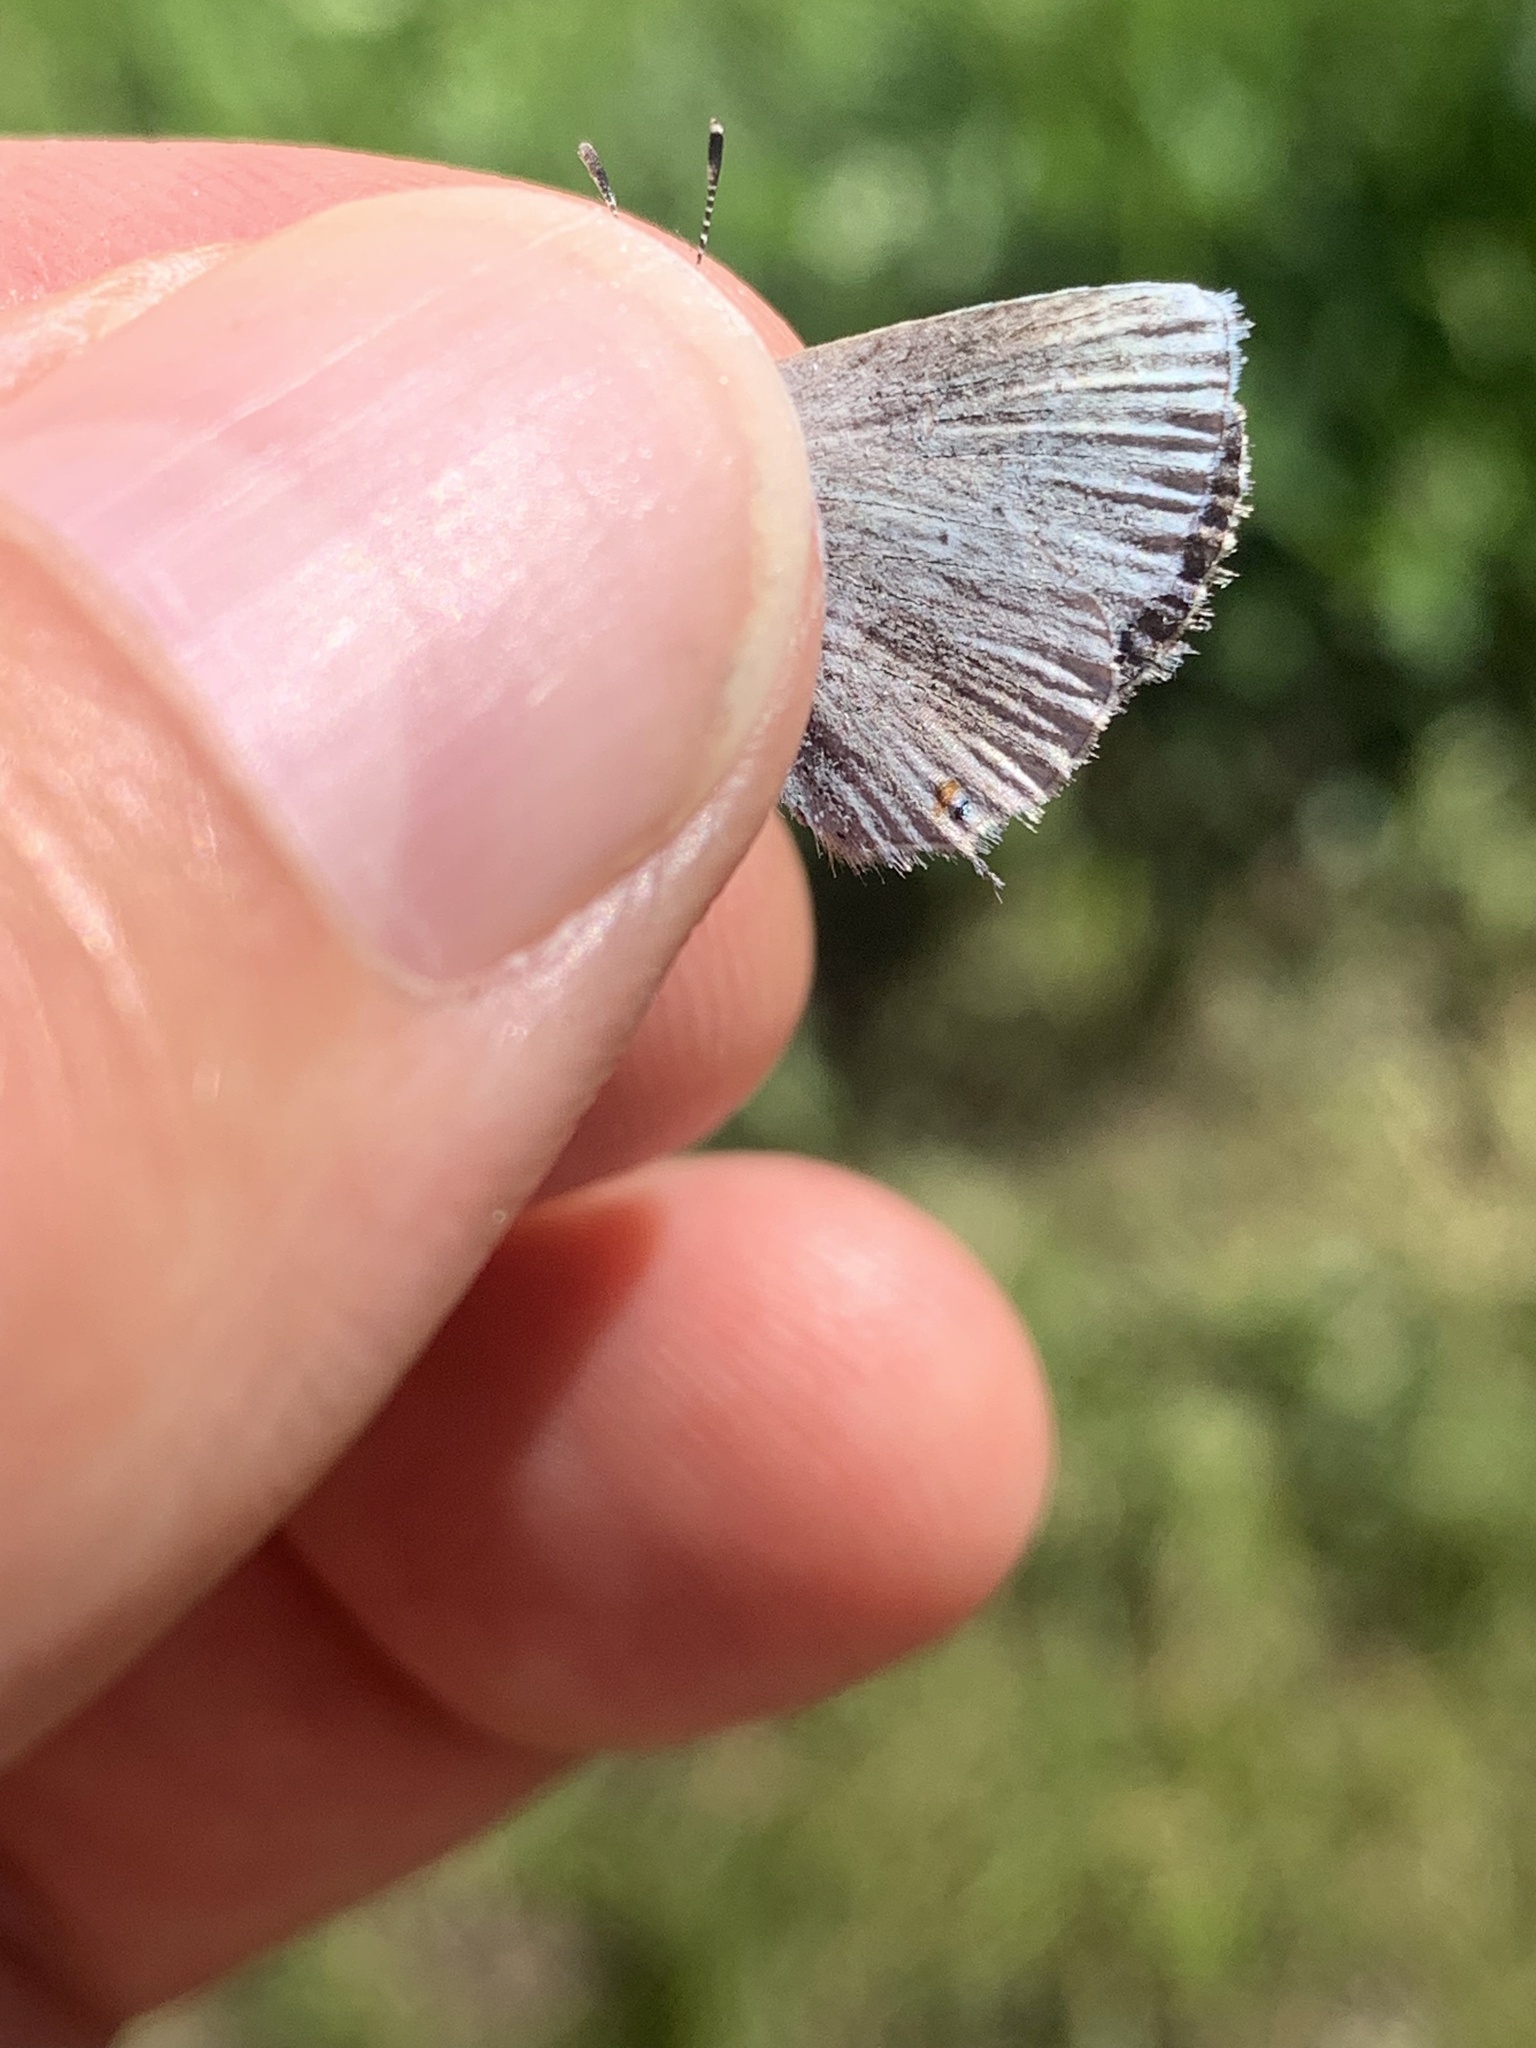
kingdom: Animalia
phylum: Arthropoda
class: Insecta
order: Lepidoptera
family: Lycaenidae
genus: Elkalyce
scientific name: Elkalyce amyntula
